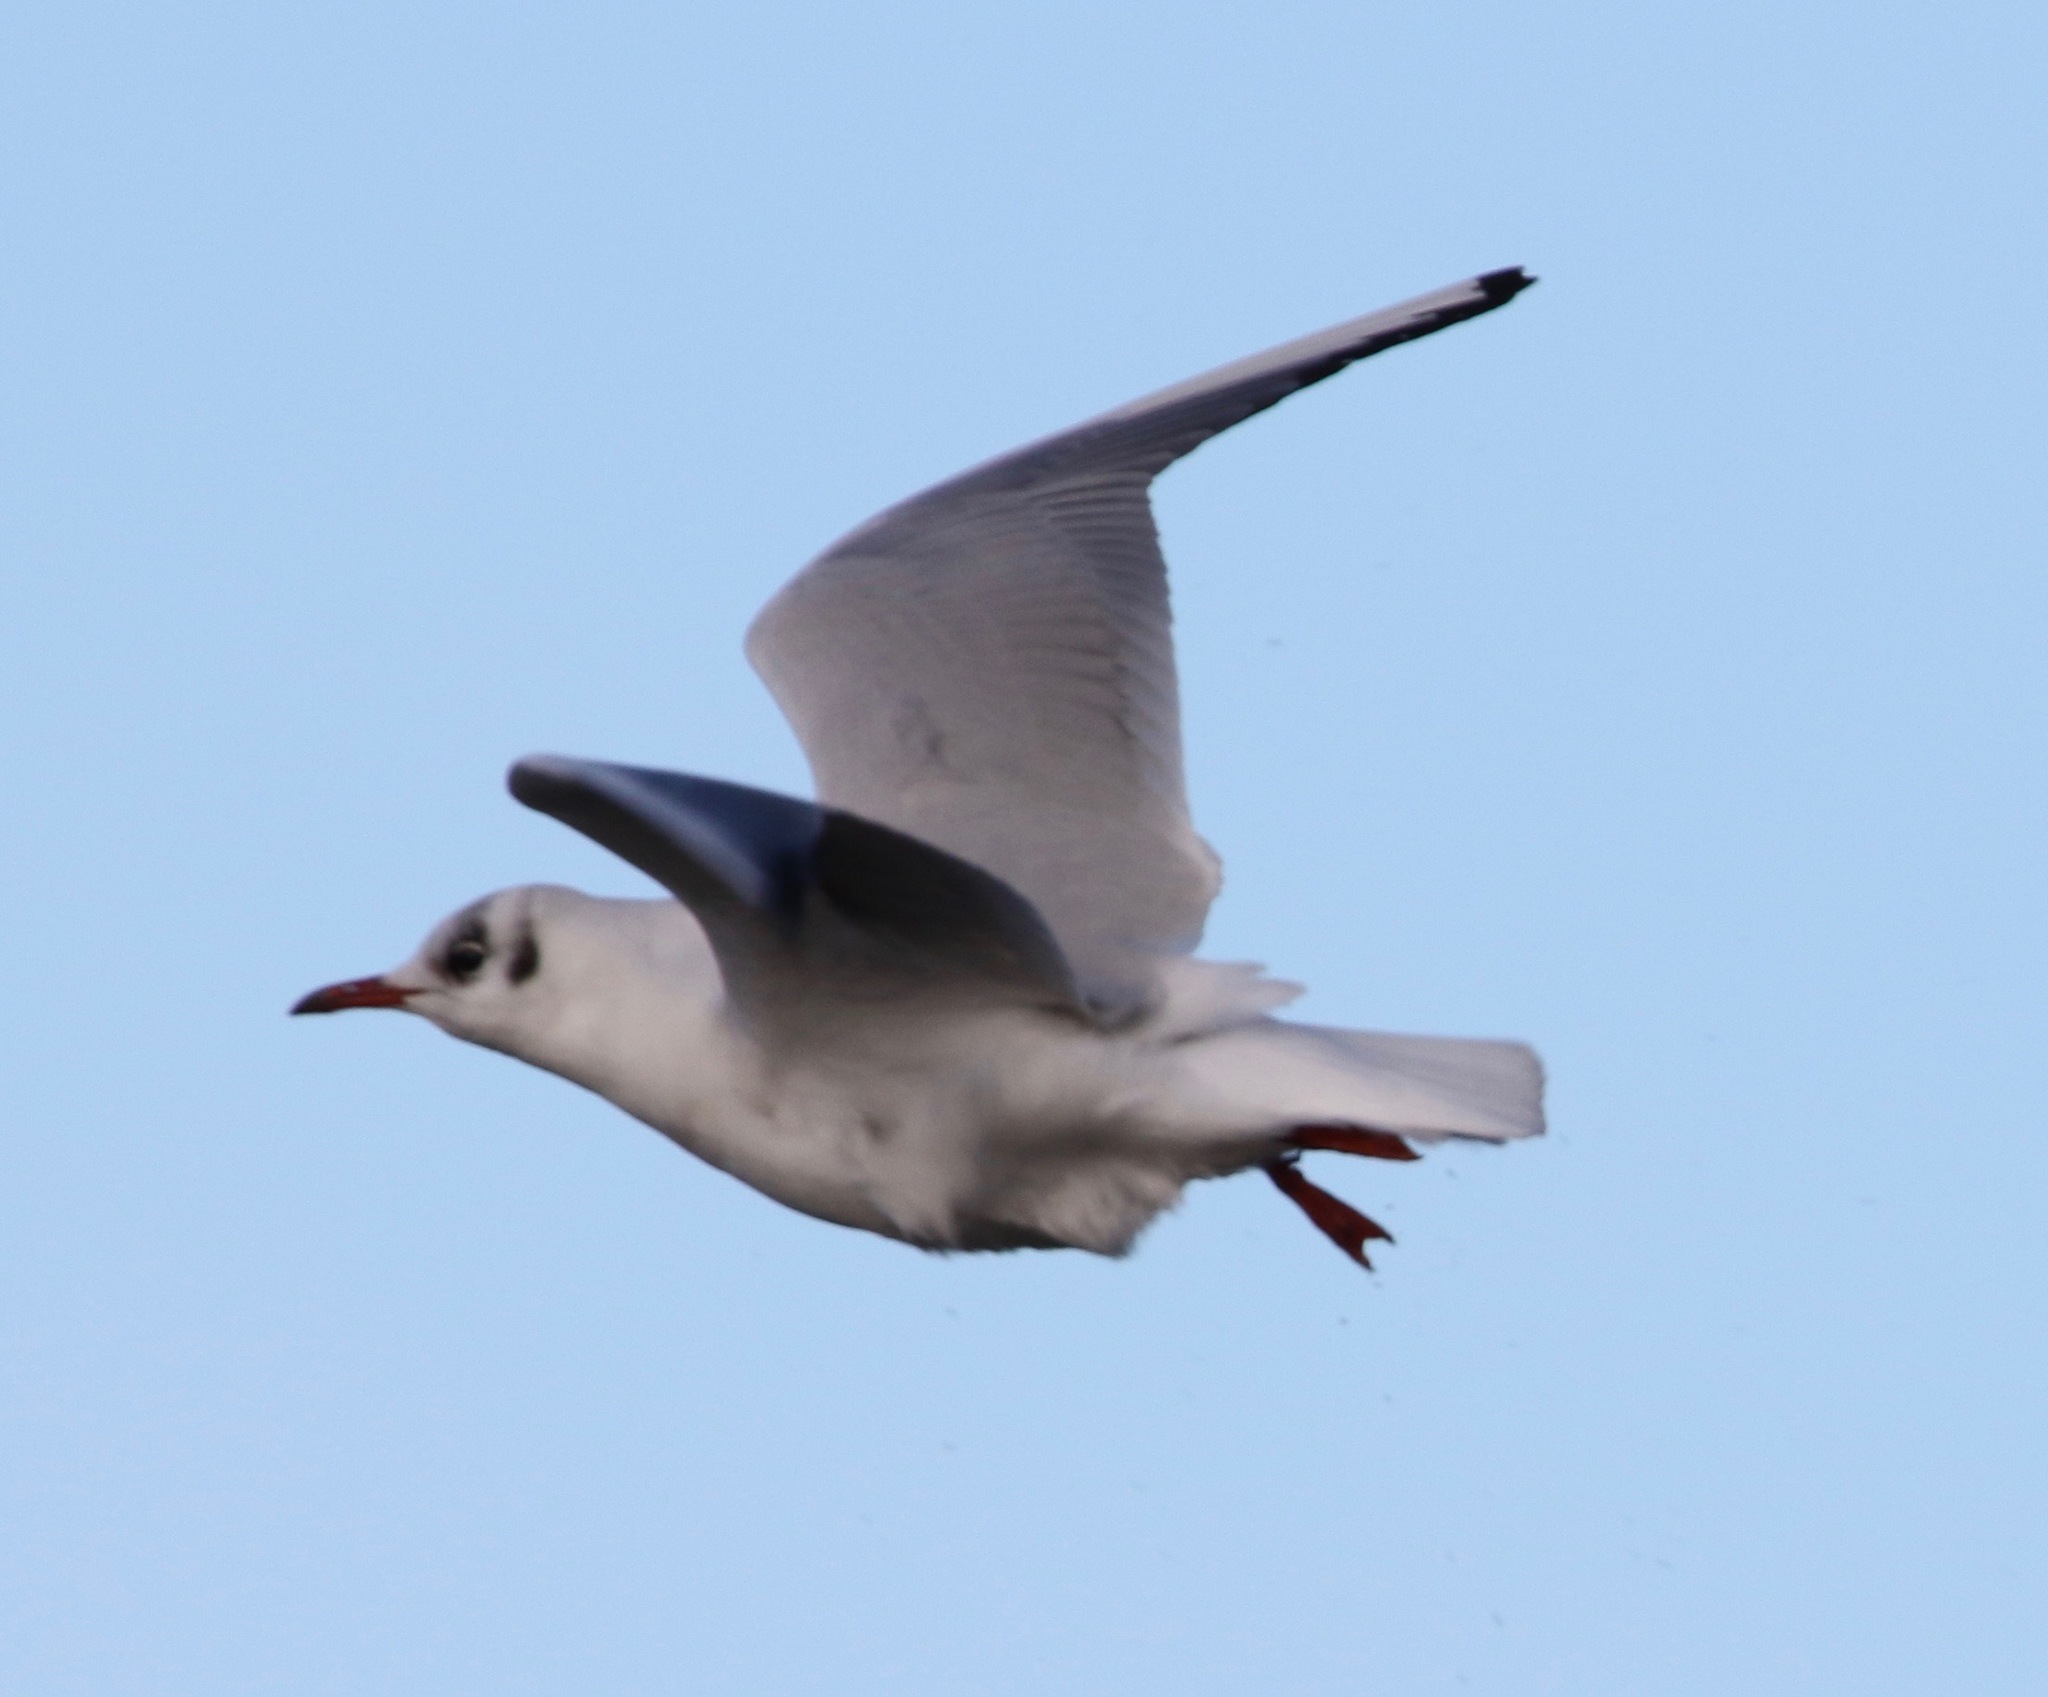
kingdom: Animalia
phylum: Chordata
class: Aves
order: Charadriiformes
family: Laridae
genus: Chroicocephalus
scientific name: Chroicocephalus ridibundus
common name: Black-headed gull
